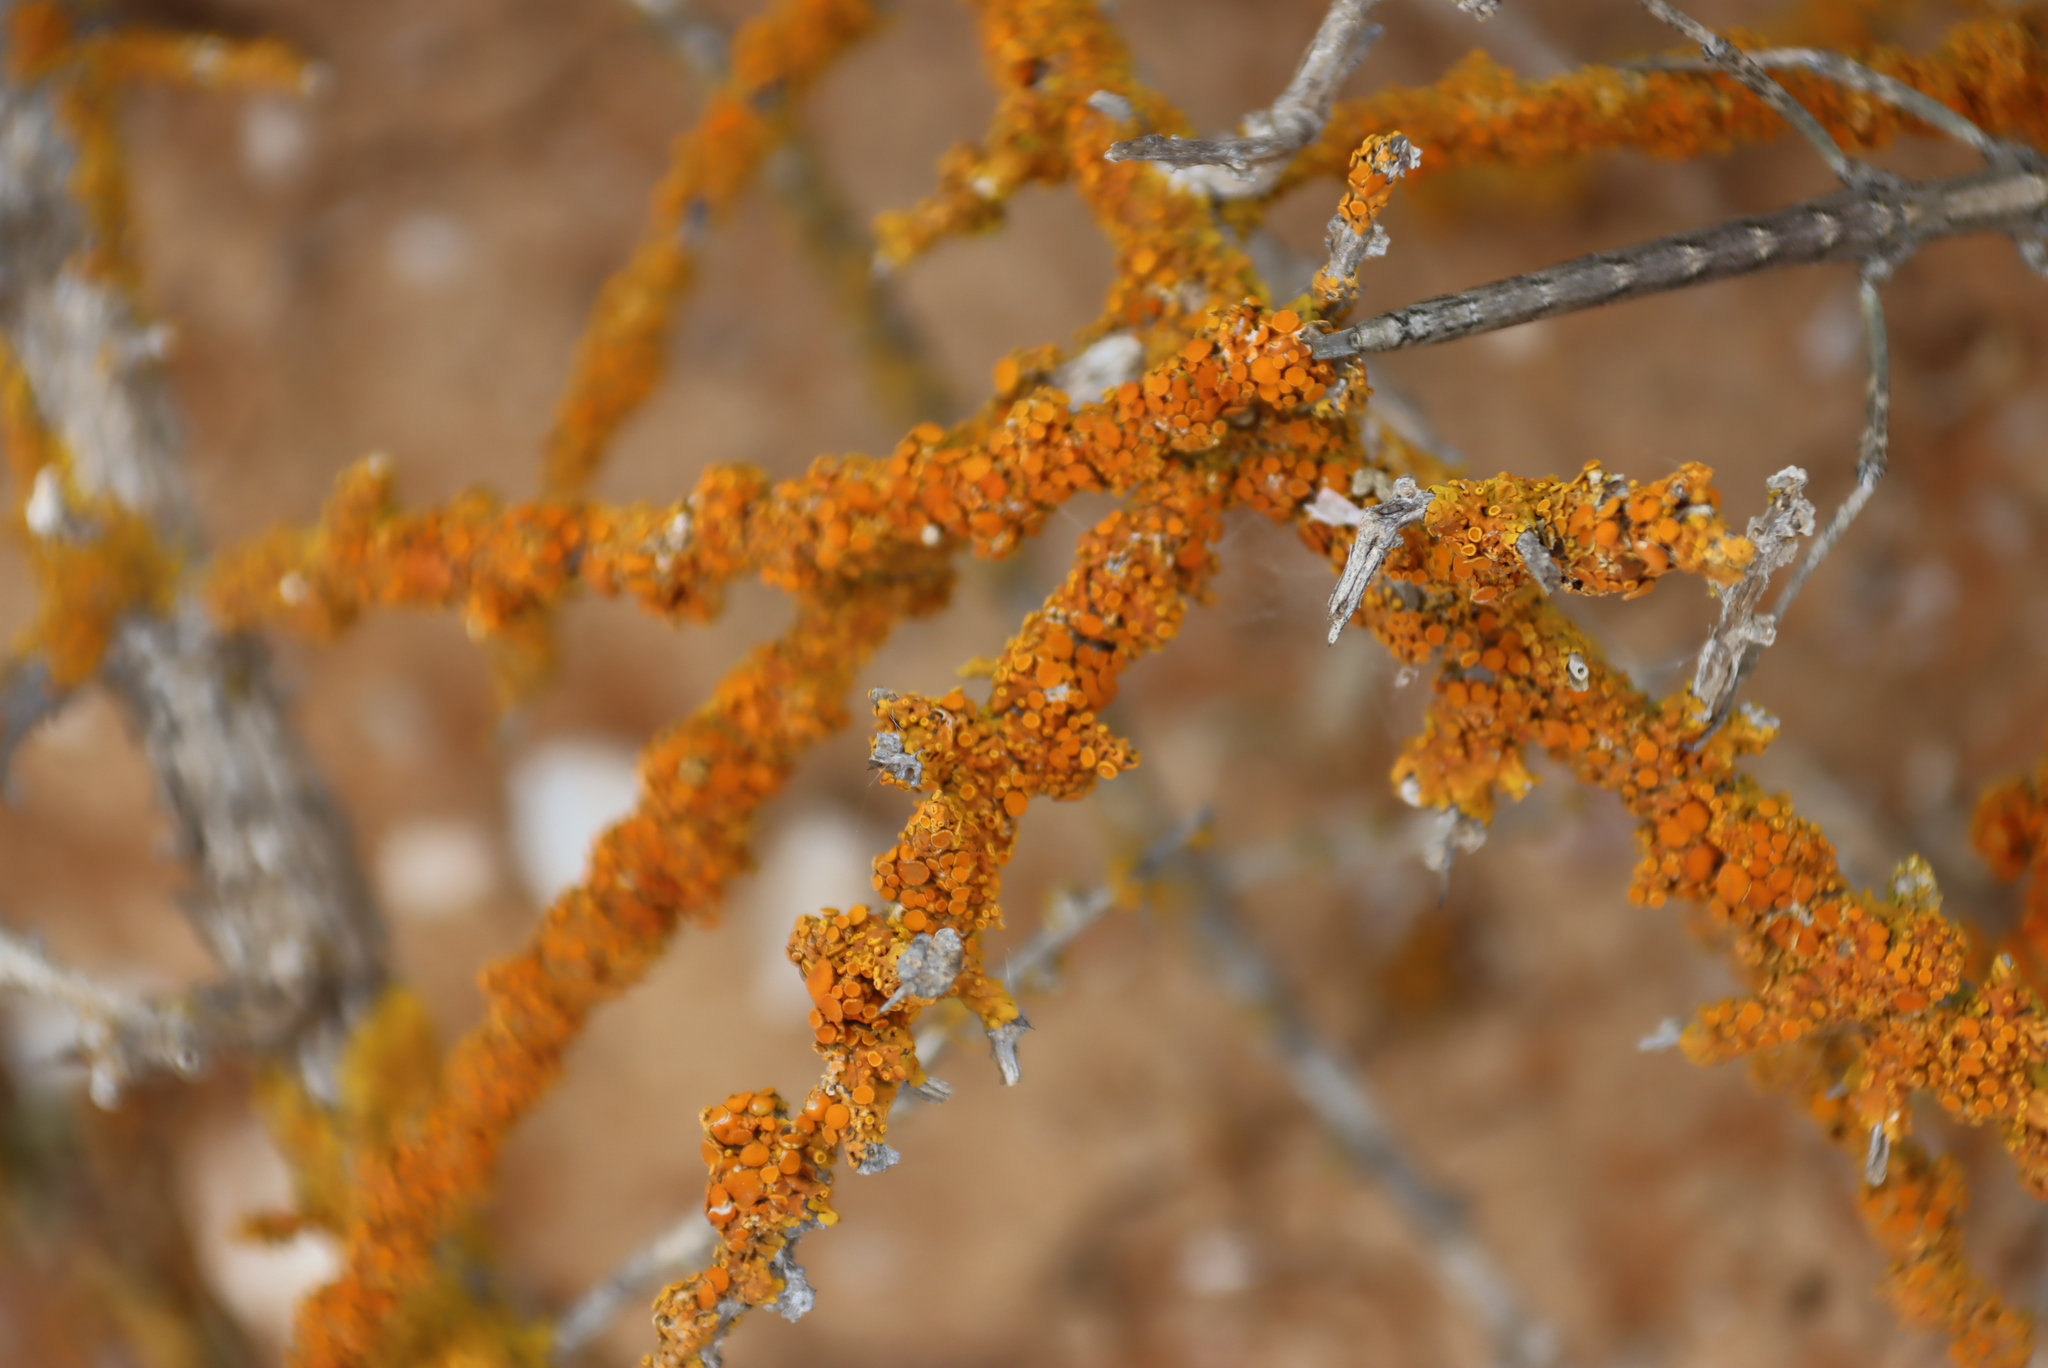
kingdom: Fungi
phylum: Ascomycota
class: Lecanoromycetes
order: Teloschistales
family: Teloschistaceae
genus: Dufourea
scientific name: Dufourea turbinata
